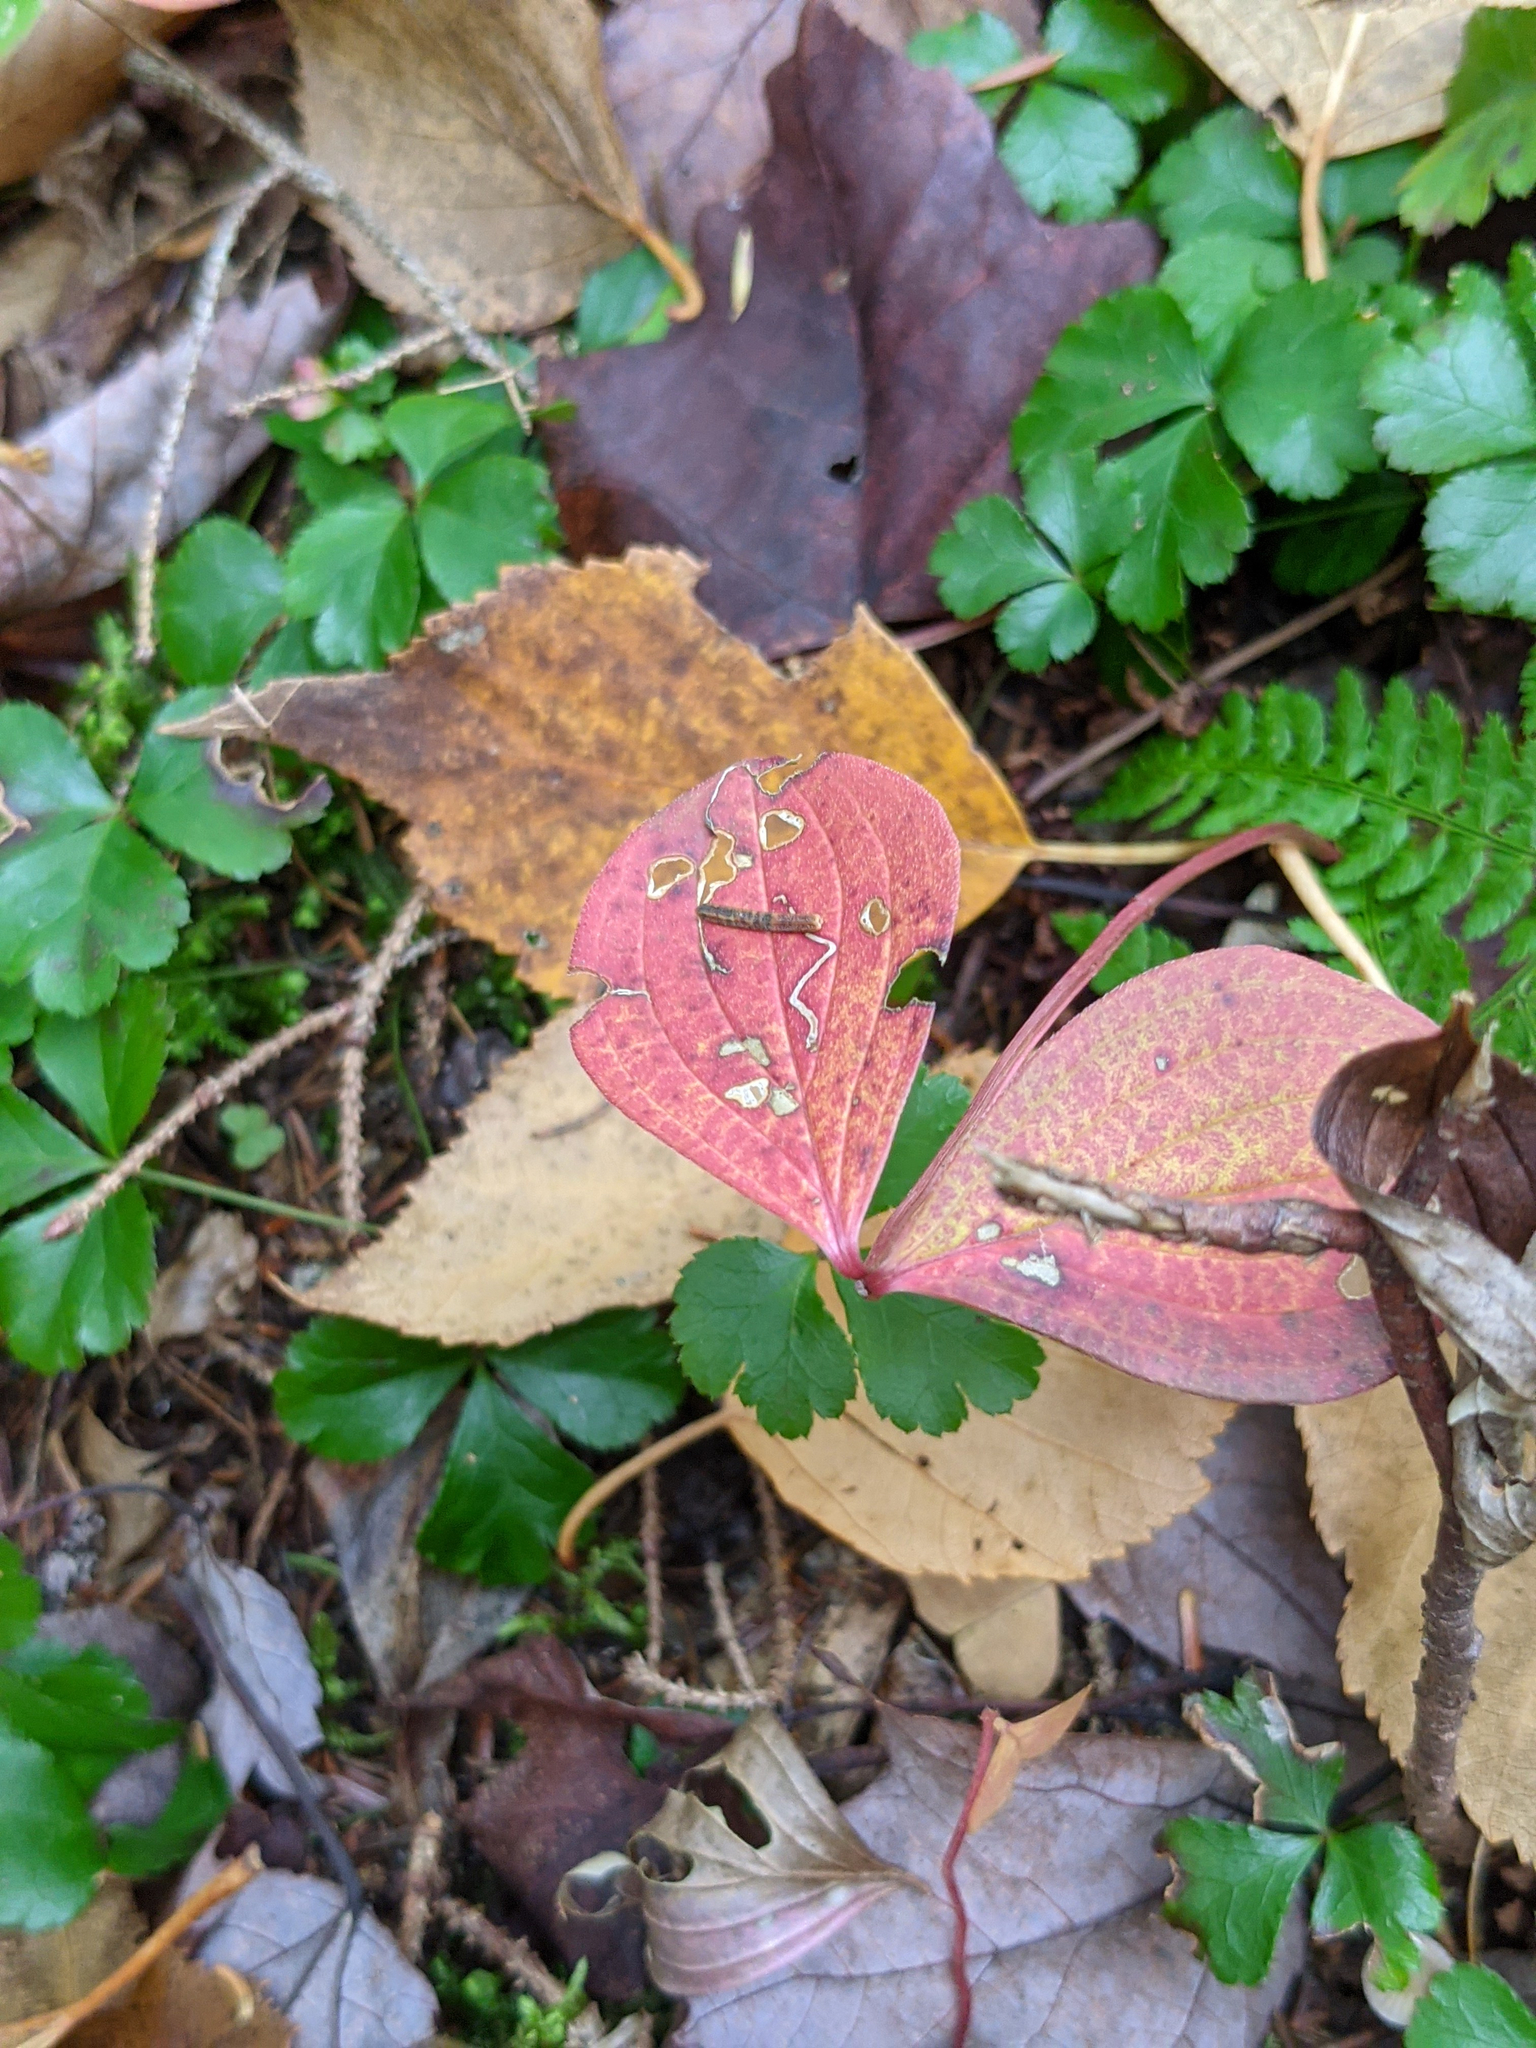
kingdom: Plantae
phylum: Tracheophyta
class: Magnoliopsida
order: Cornales
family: Cornaceae
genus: Cornus
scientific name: Cornus canadensis
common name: Creeping dogwood
